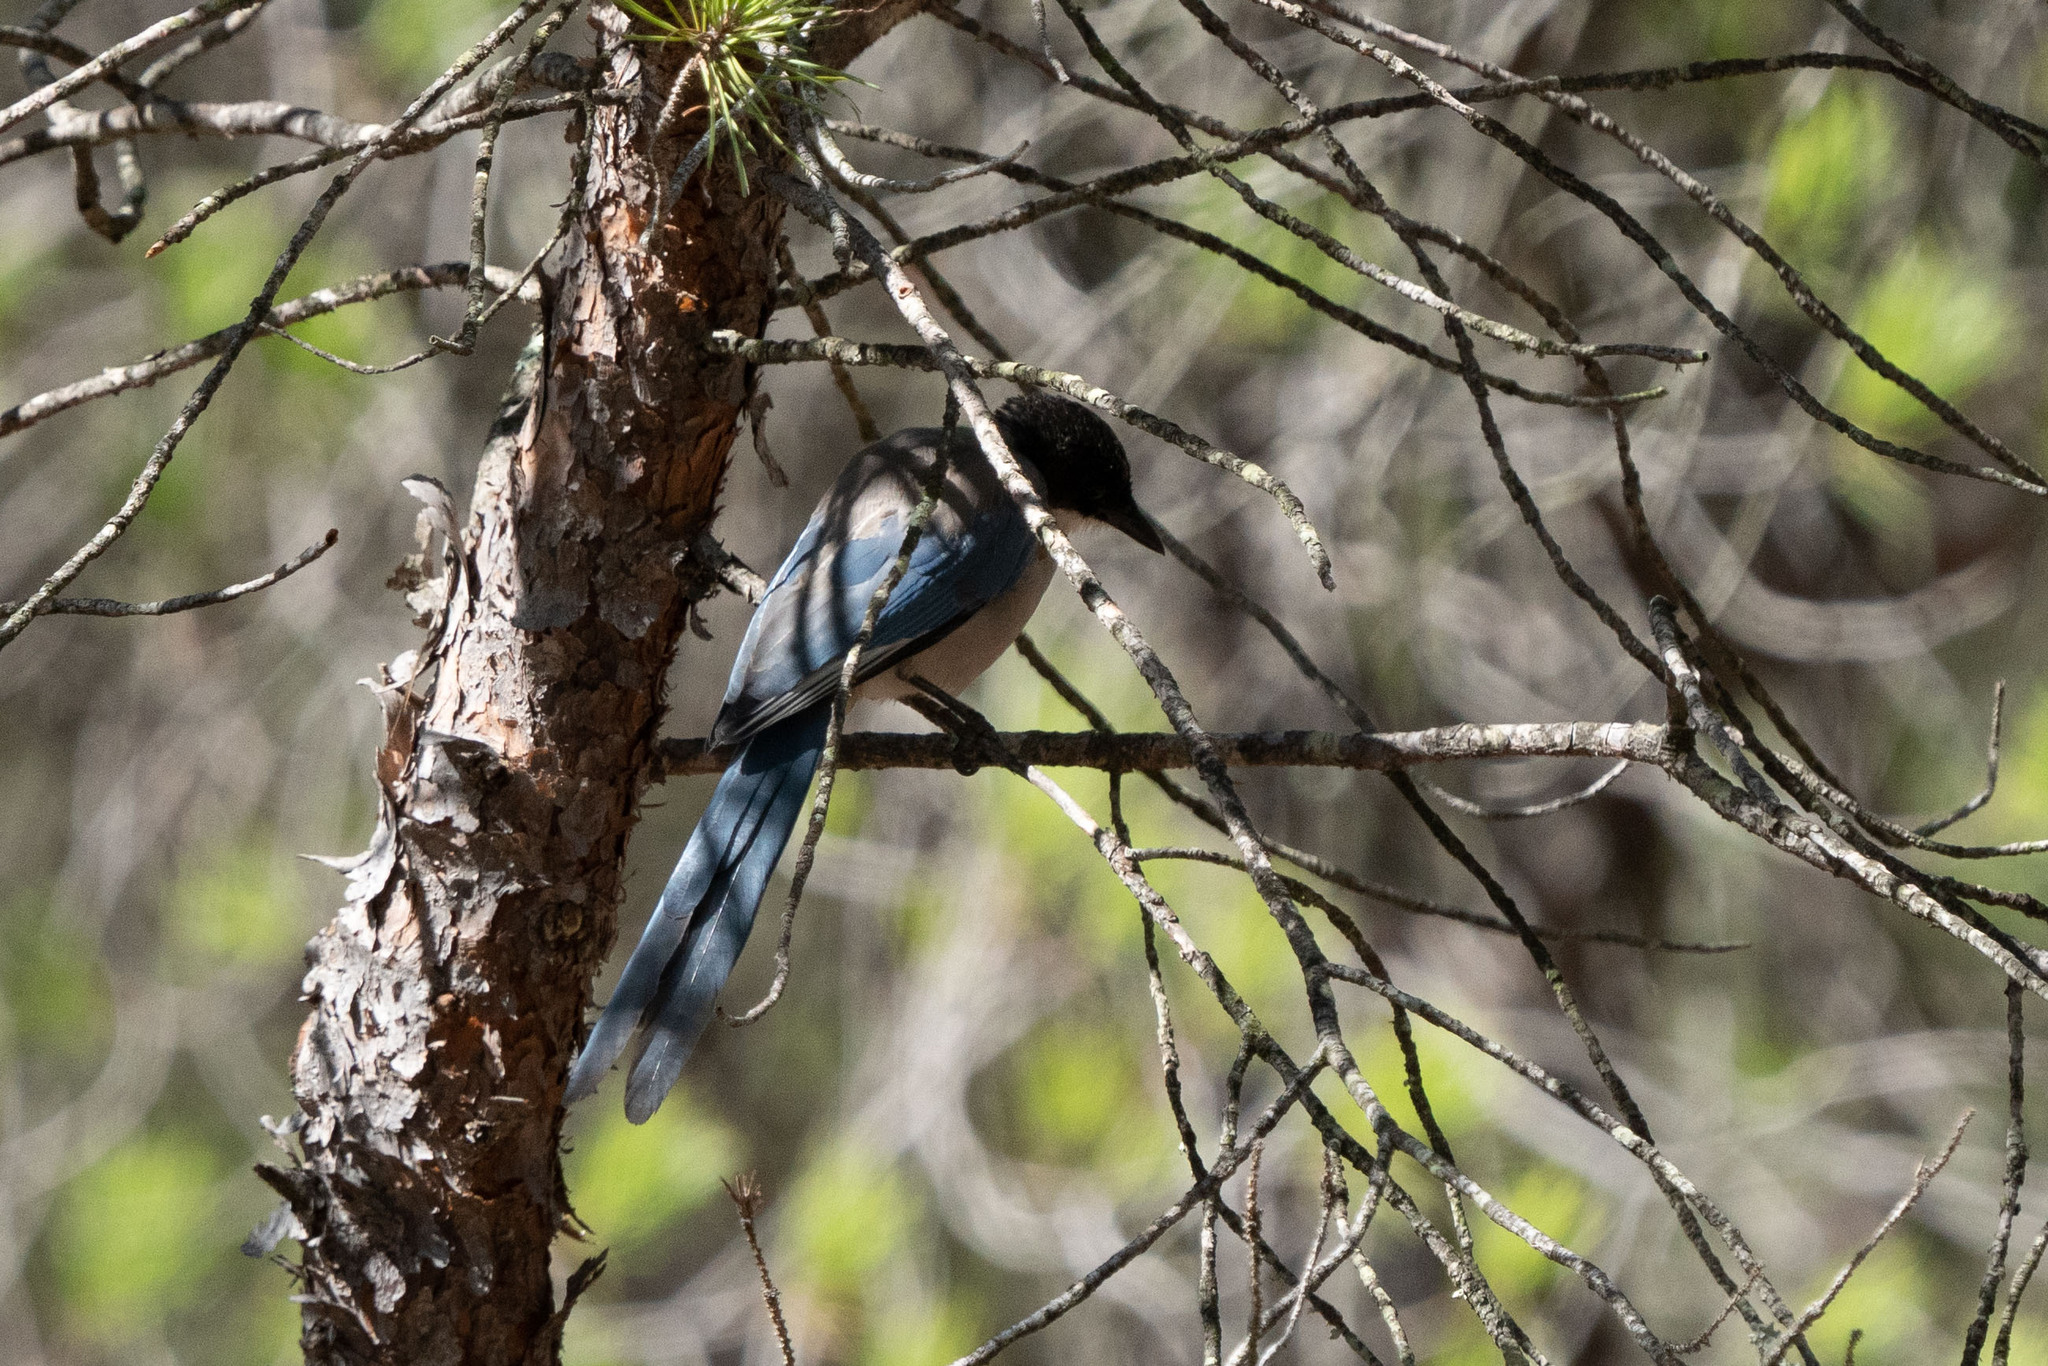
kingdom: Animalia
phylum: Chordata
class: Aves
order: Passeriformes
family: Corvidae
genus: Cyanopica
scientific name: Cyanopica cooki
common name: Iberian magpie
